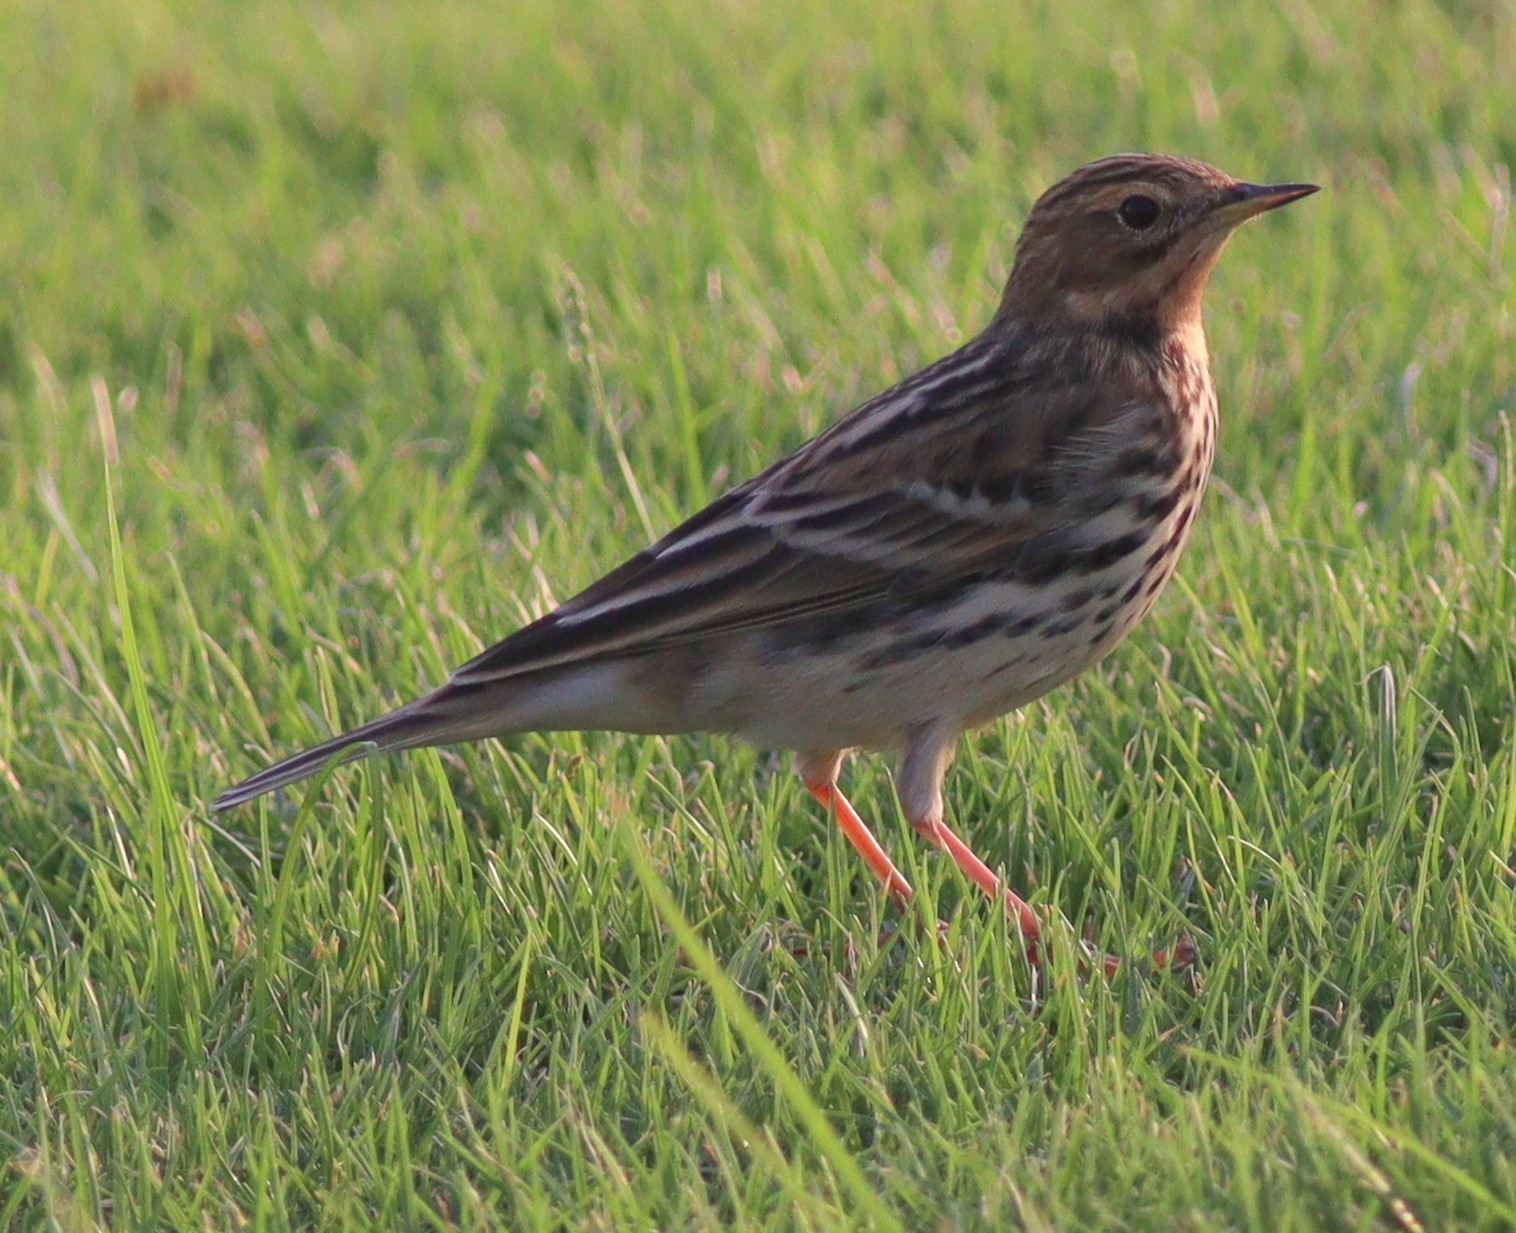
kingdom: Animalia
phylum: Chordata
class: Aves
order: Passeriformes
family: Motacillidae
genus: Anthus
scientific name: Anthus cervinus
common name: Red-throated pipit
